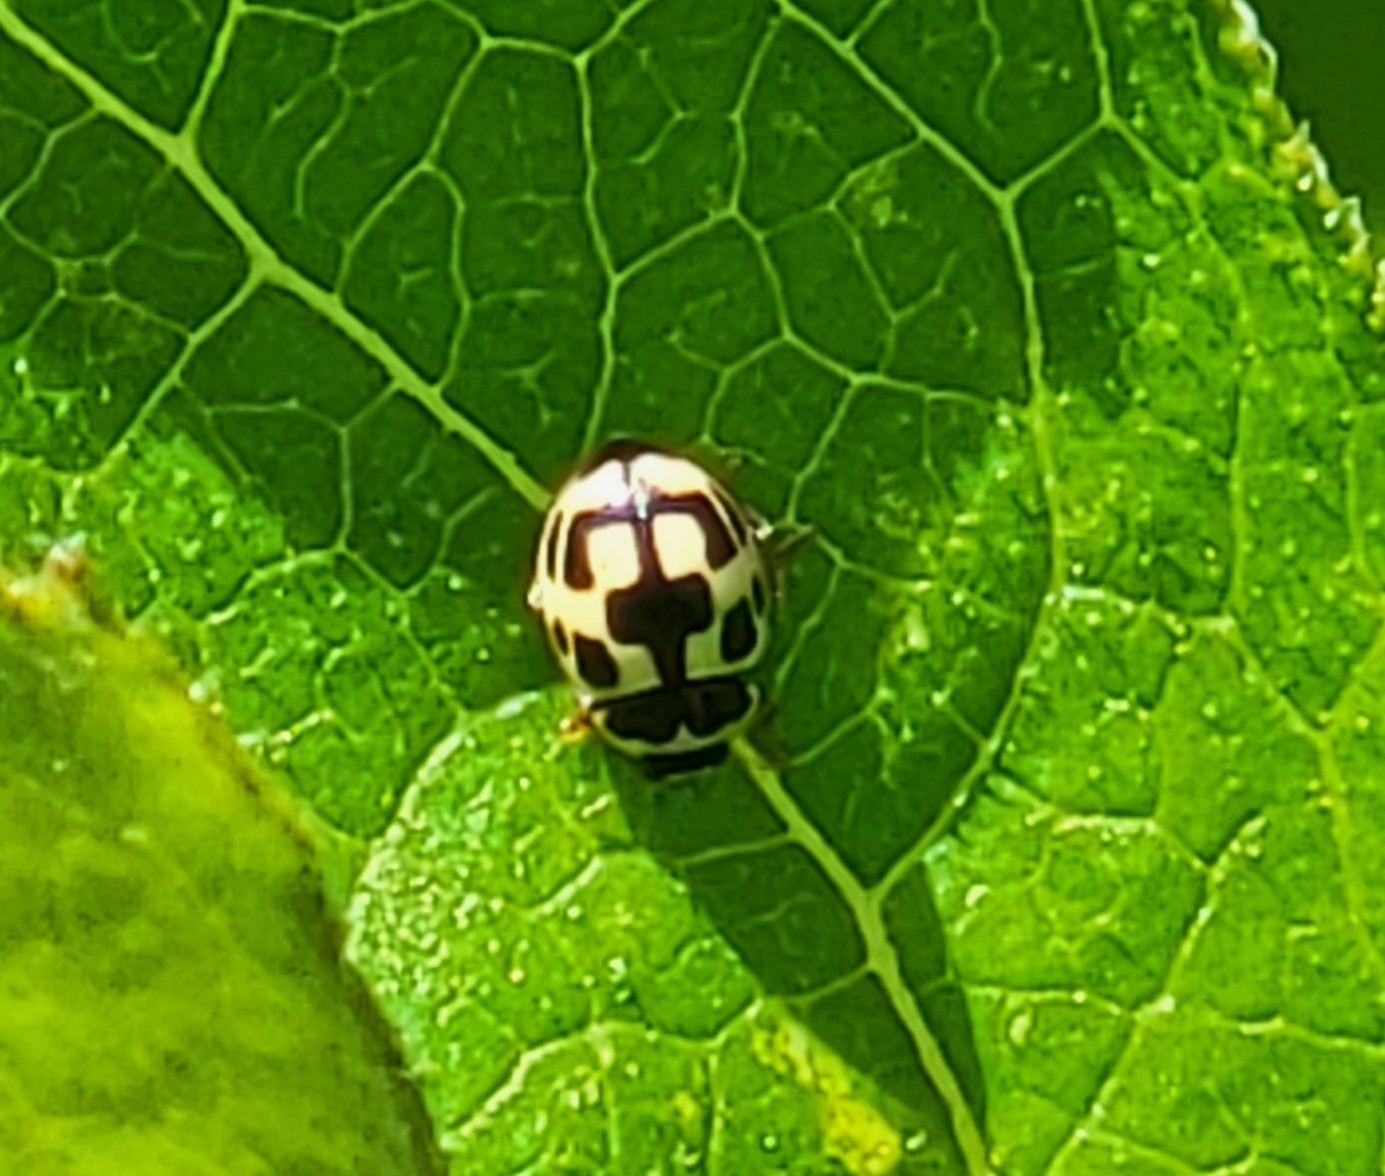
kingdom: Animalia
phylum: Arthropoda
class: Insecta
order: Coleoptera
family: Coccinellidae
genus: Propylaea
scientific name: Propylaea quatuordecimpunctata
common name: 14-spotted ladybird beetle
